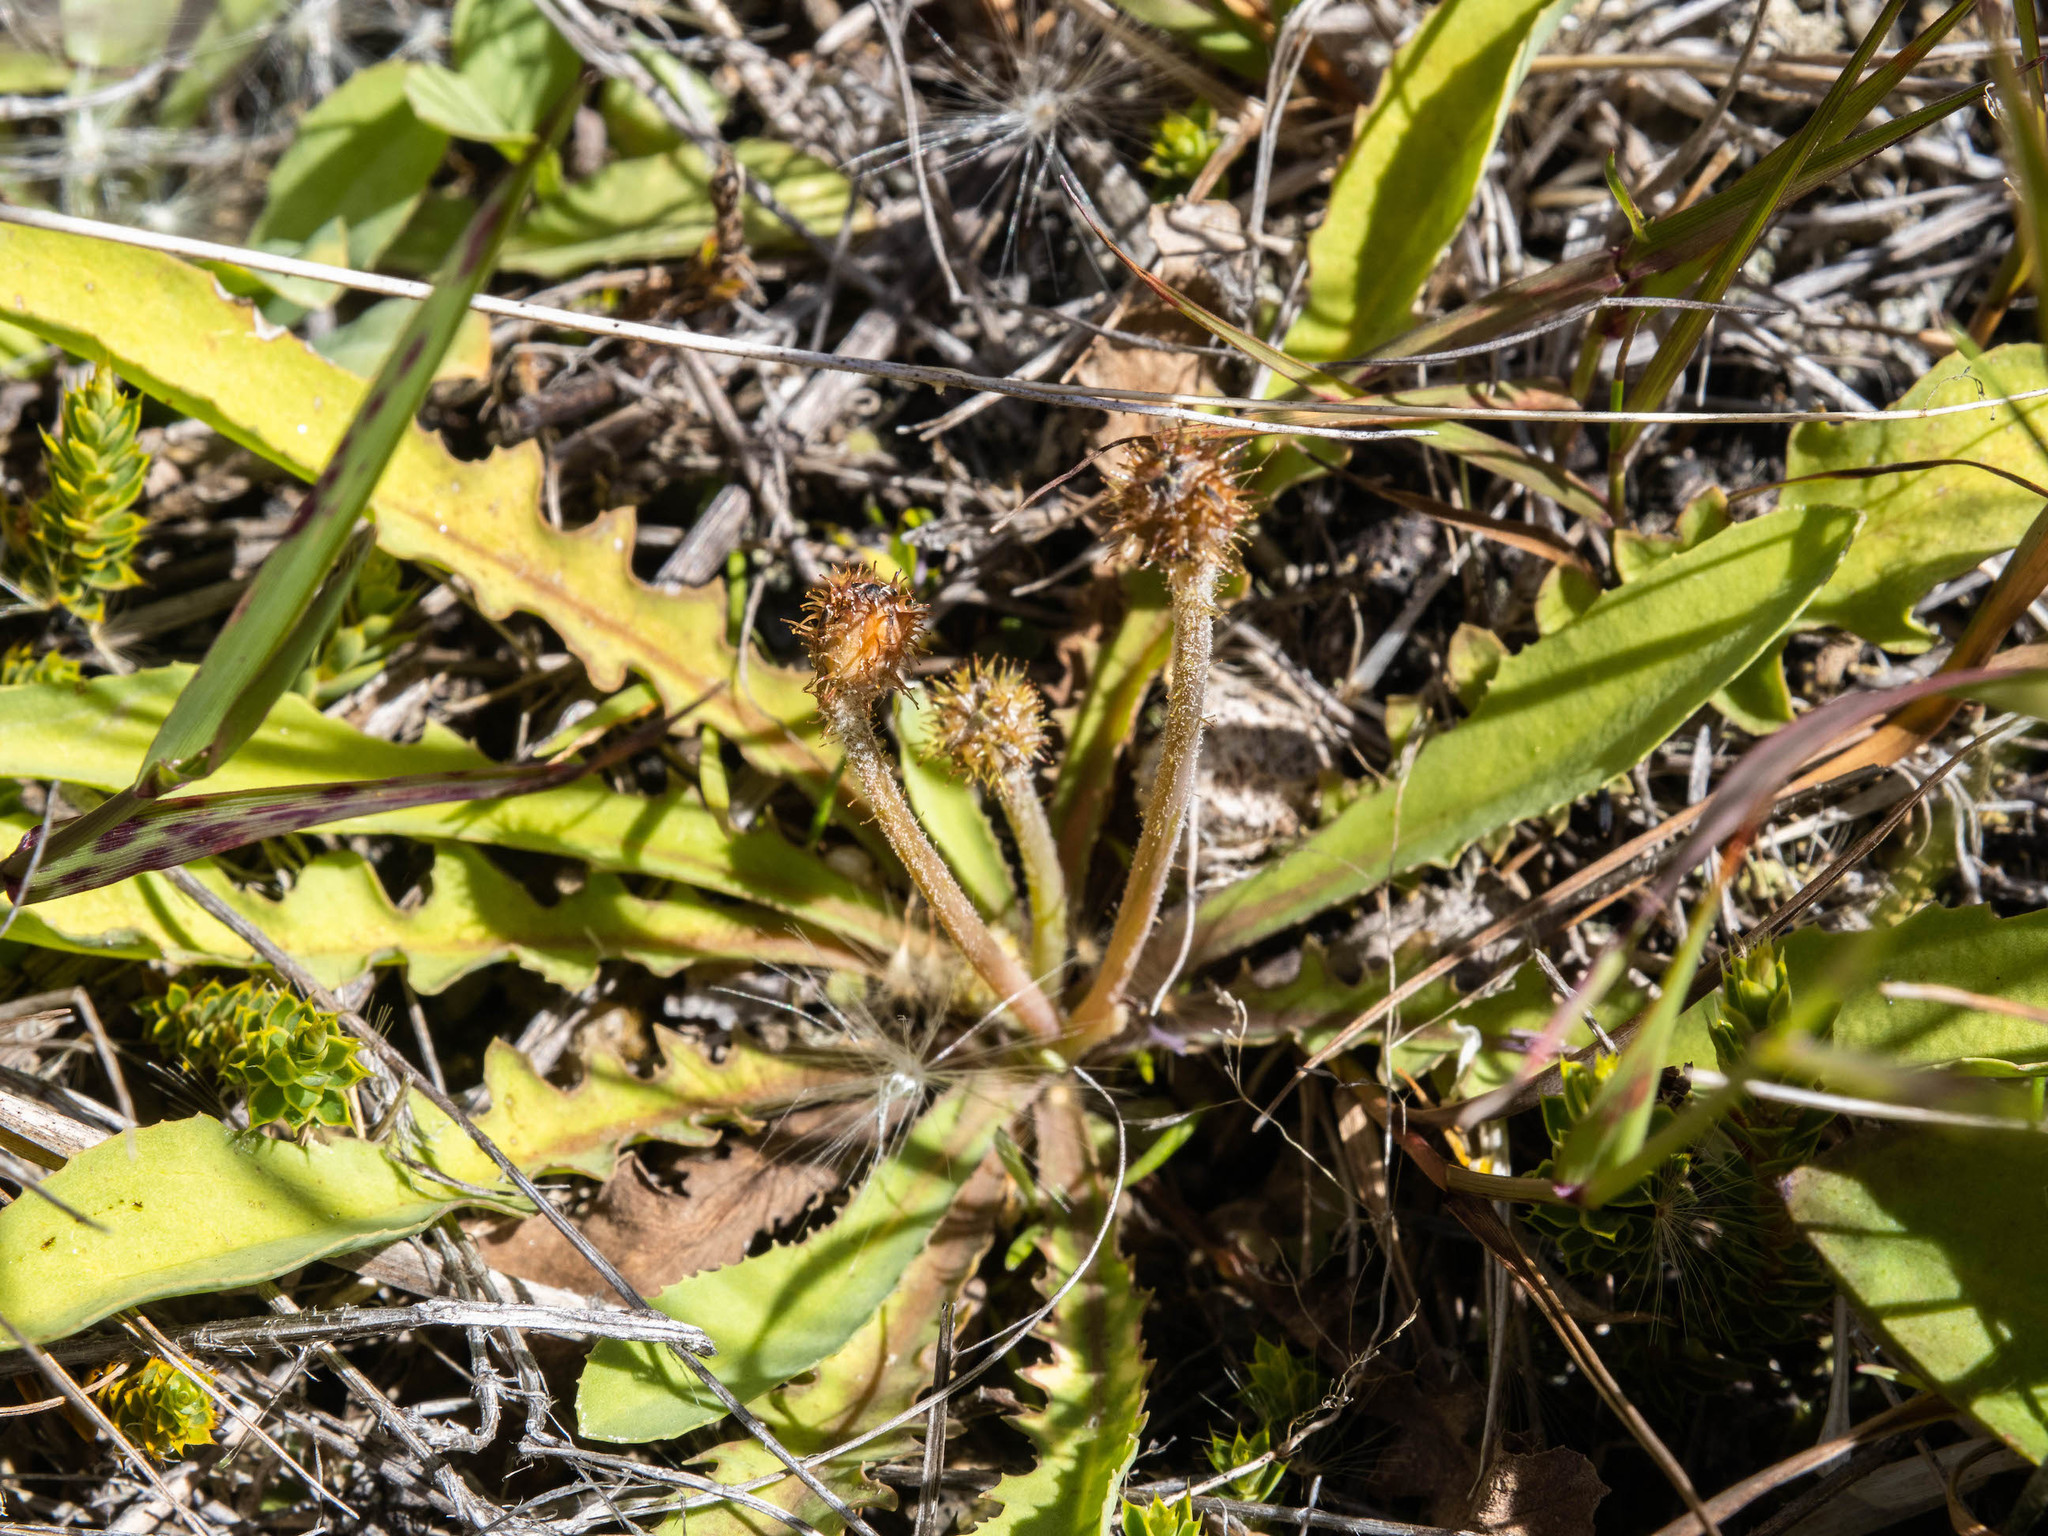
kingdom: Plantae
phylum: Tracheophyta
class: Magnoliopsida
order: Asterales
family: Asteraceae
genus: Sonchus
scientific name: Sonchus novae-zelandiae
